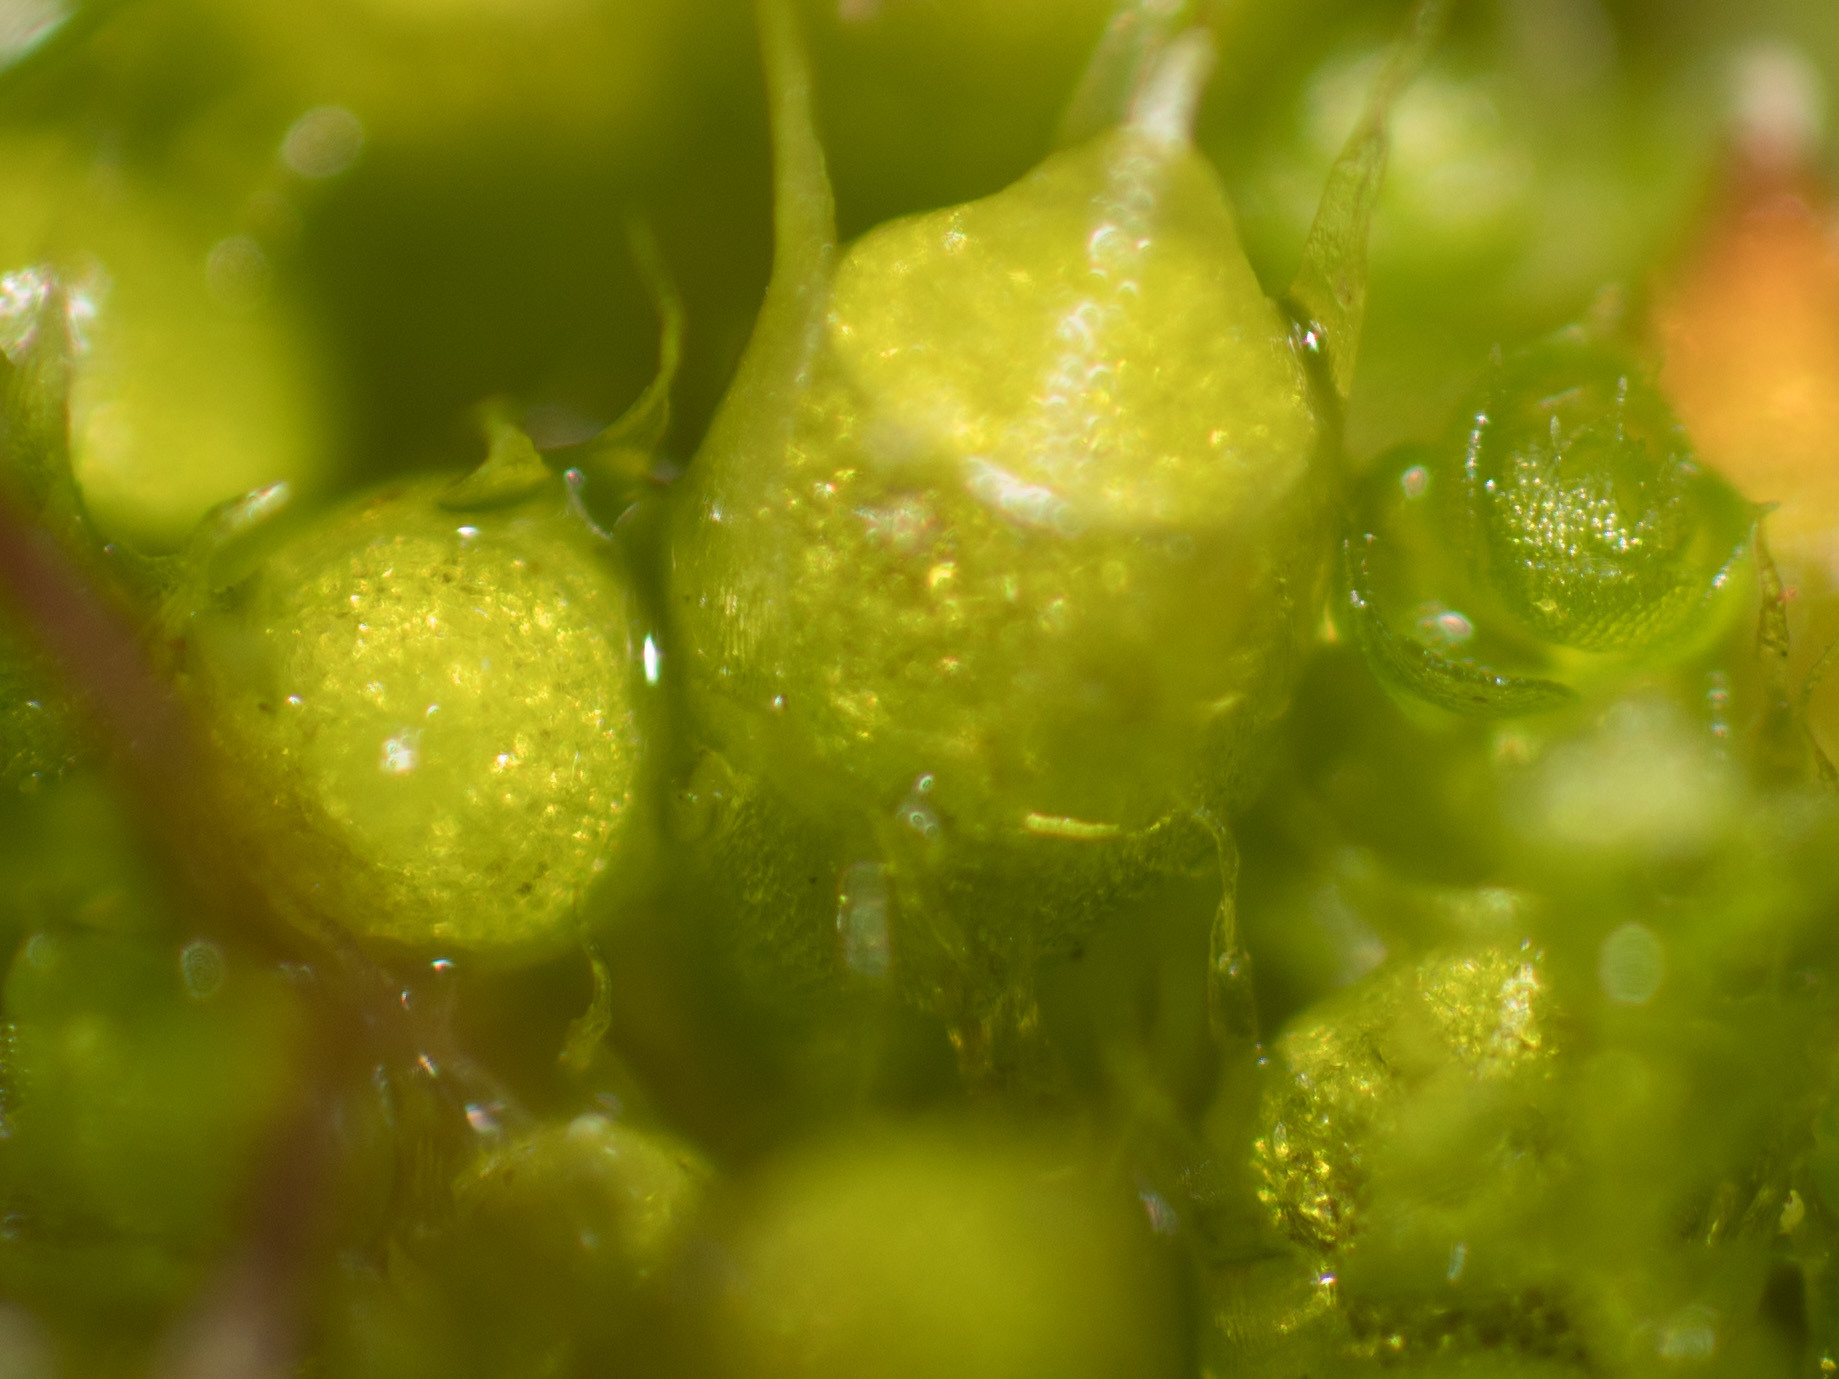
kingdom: Plantae
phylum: Bryophyta
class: Bryopsida
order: Gigaspermales
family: Gigaspermaceae
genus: Gigaspermum
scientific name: Gigaspermum repens
